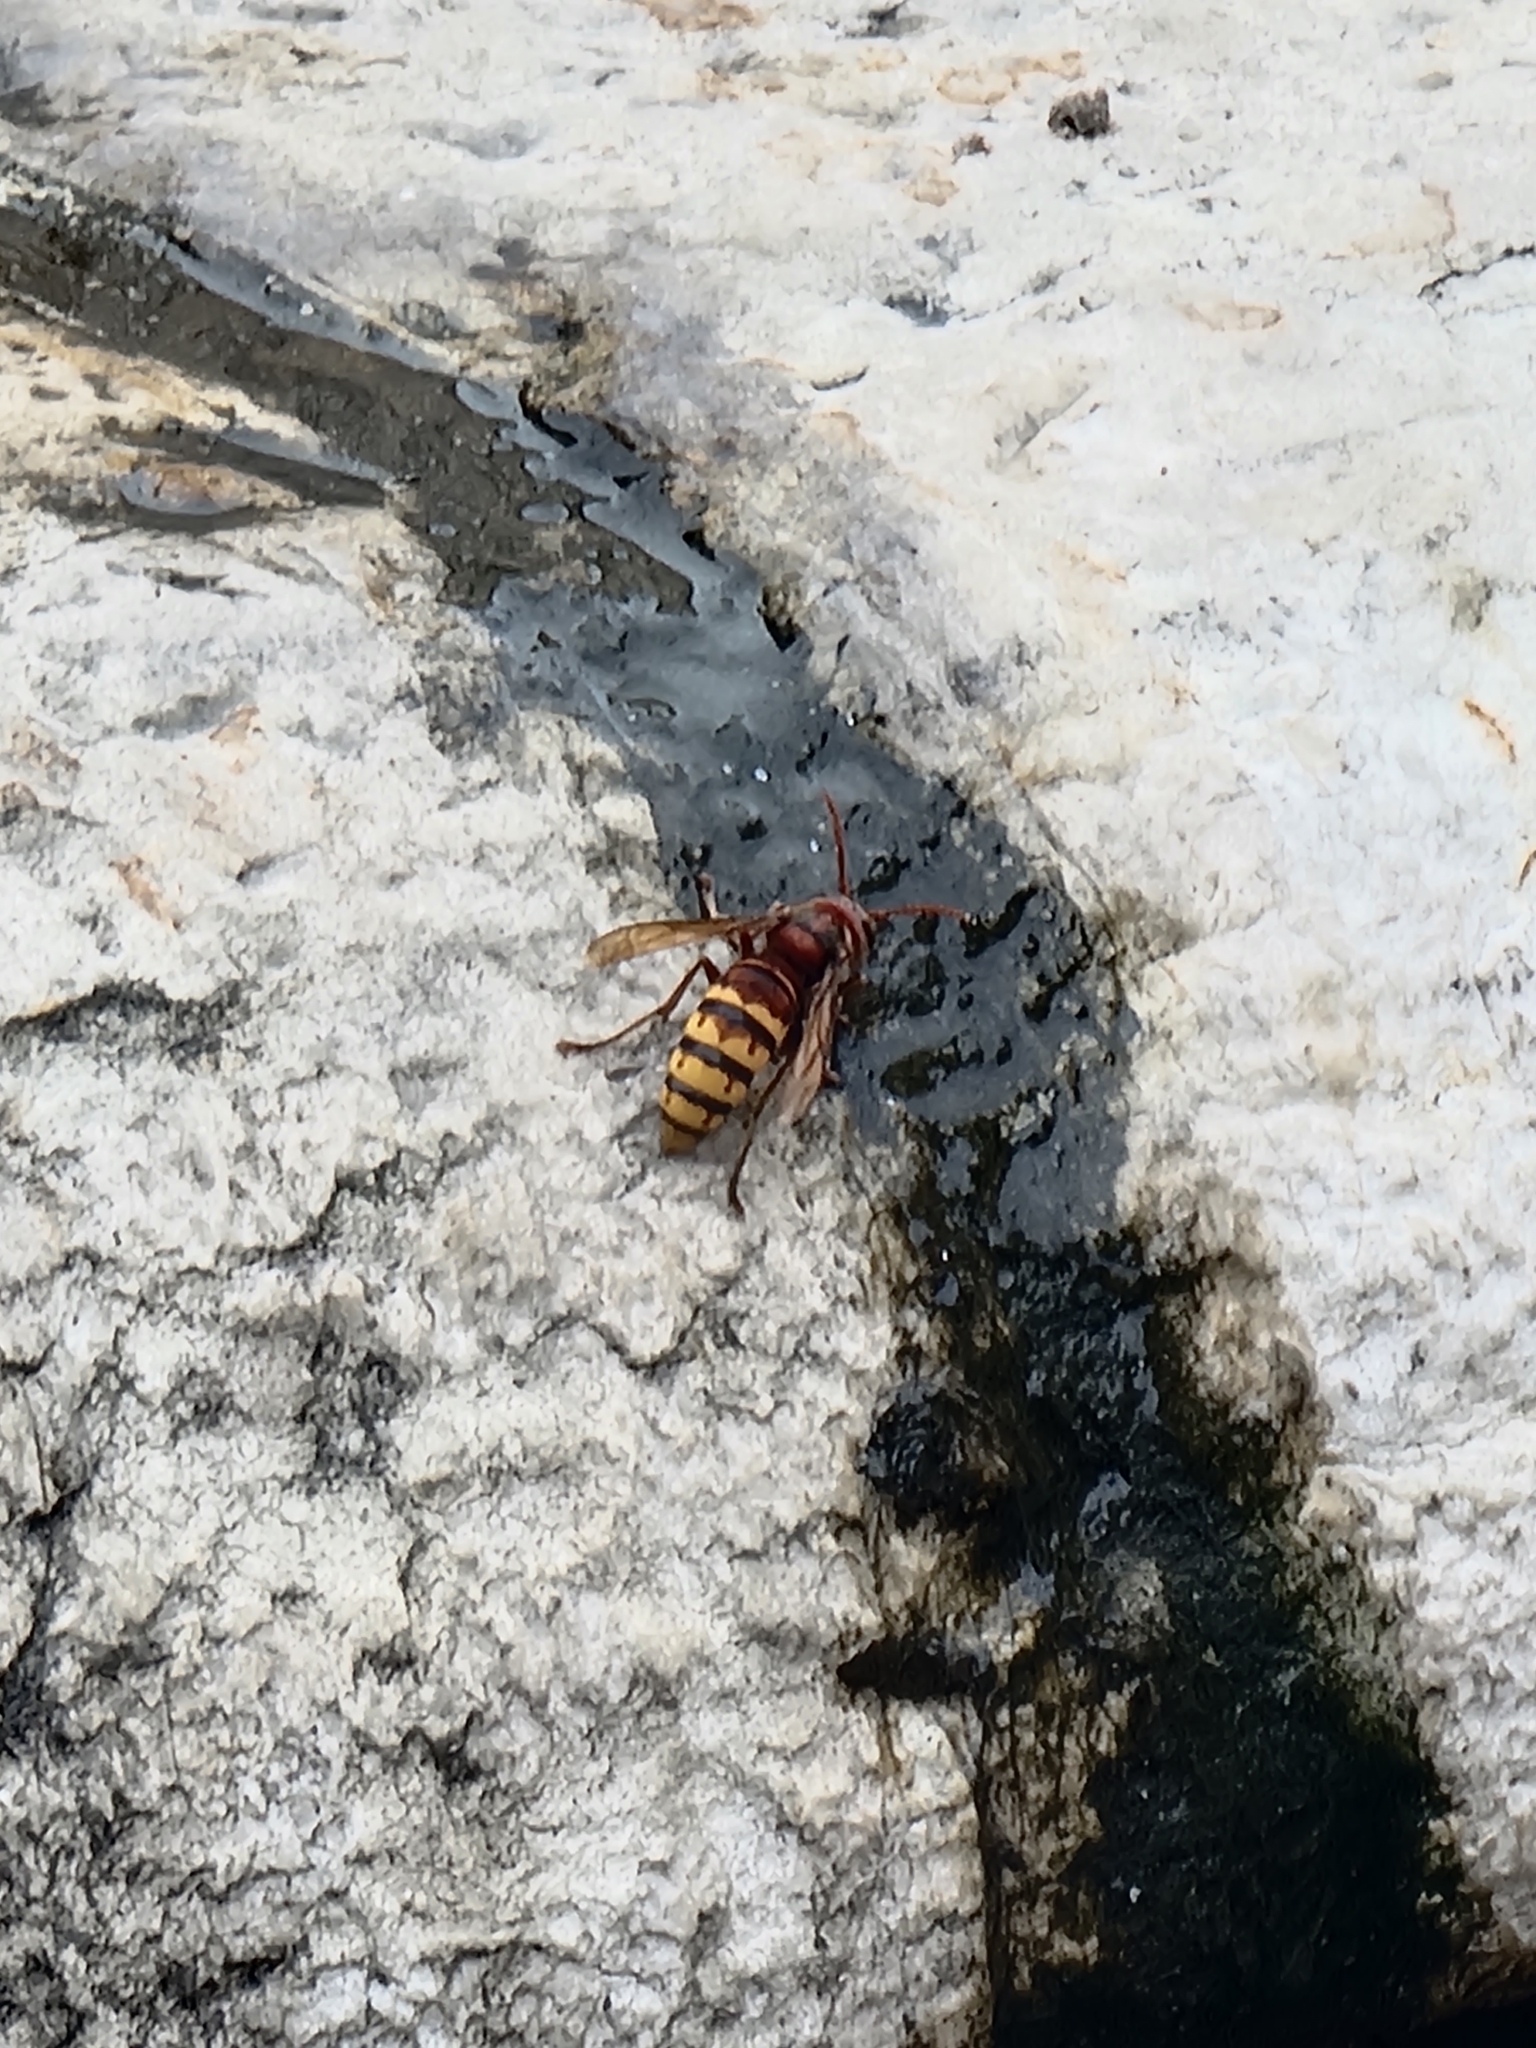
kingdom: Animalia
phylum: Arthropoda
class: Insecta
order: Hymenoptera
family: Vespidae
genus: Vespa
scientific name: Vespa crabro
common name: Hornet
